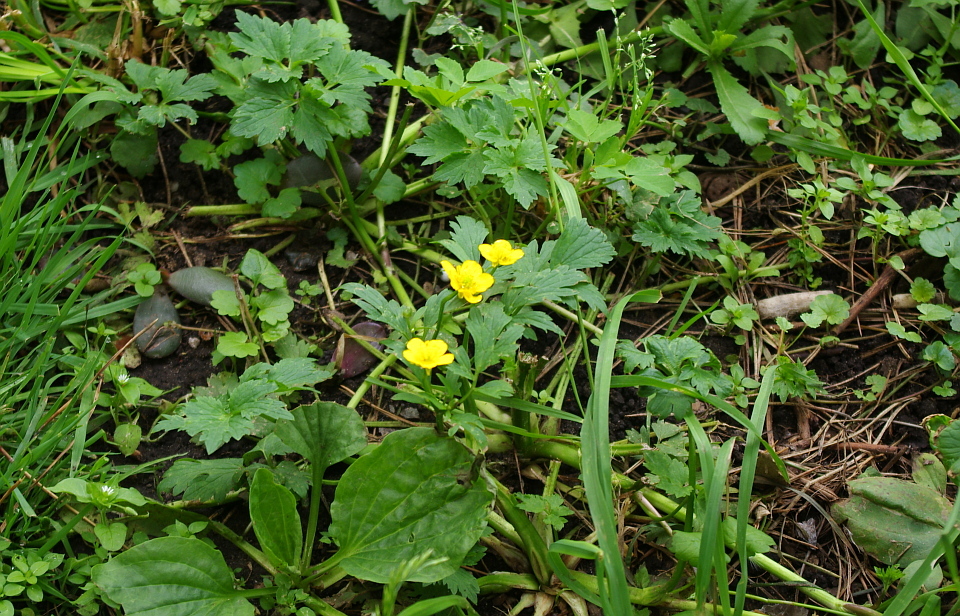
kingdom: Plantae
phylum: Tracheophyta
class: Magnoliopsida
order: Ranunculales
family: Ranunculaceae
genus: Ranunculus
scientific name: Ranunculus repens
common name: Creeping buttercup
